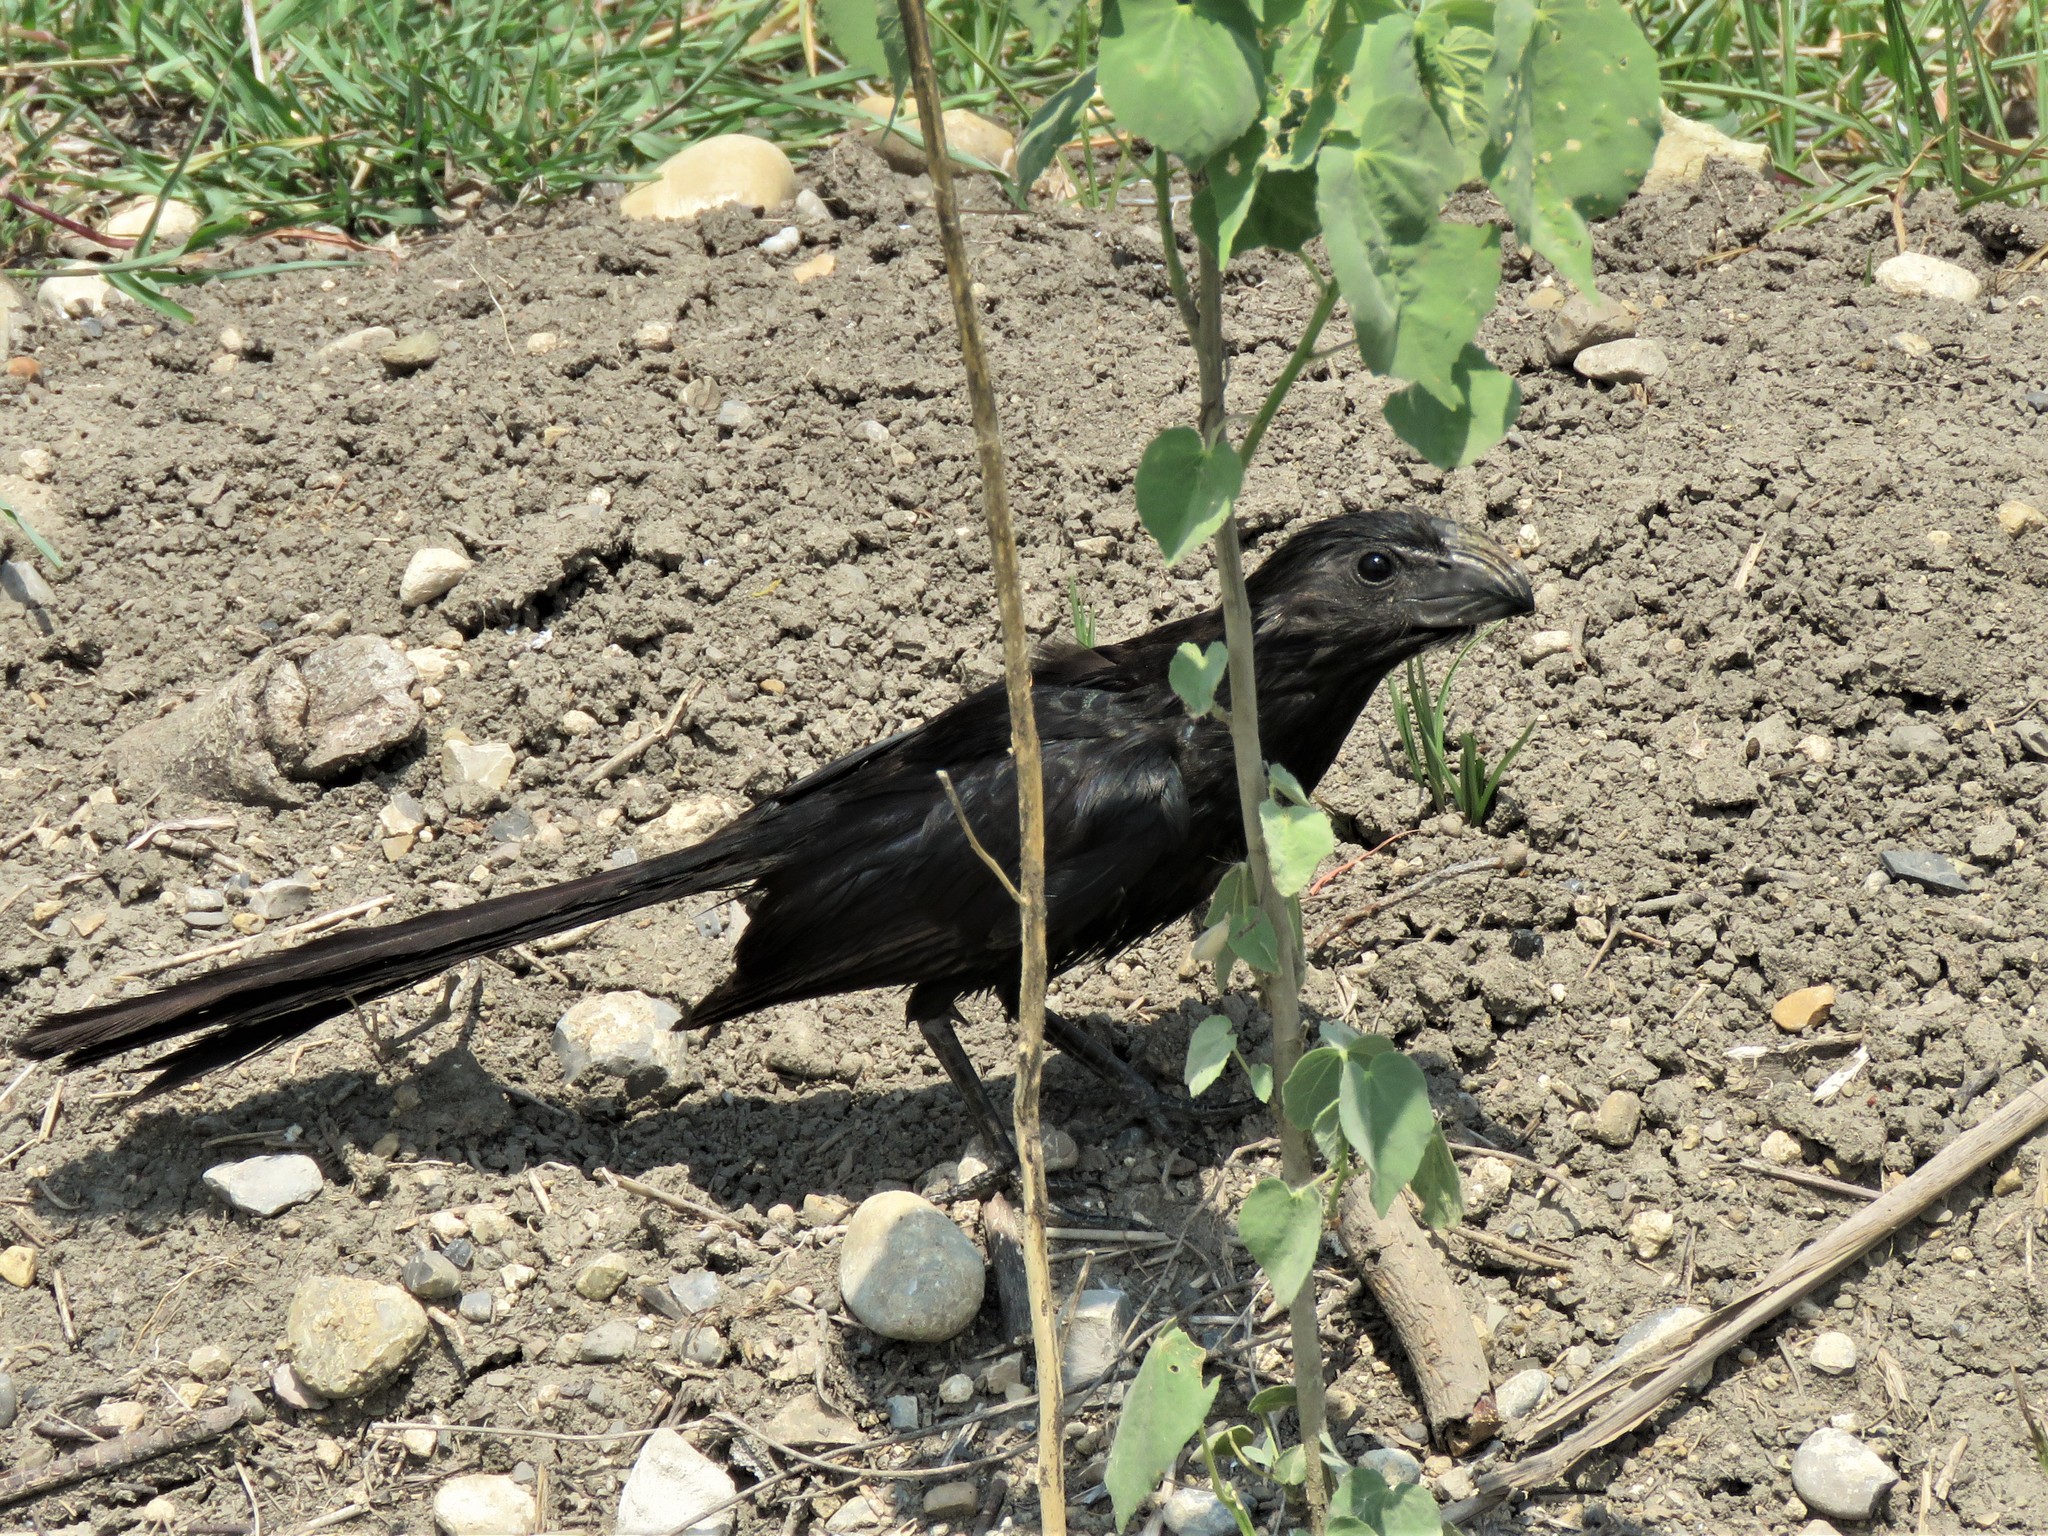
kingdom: Animalia
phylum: Chordata
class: Aves
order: Cuculiformes
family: Cuculidae
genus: Crotophaga
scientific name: Crotophaga sulcirostris
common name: Groove-billed ani
